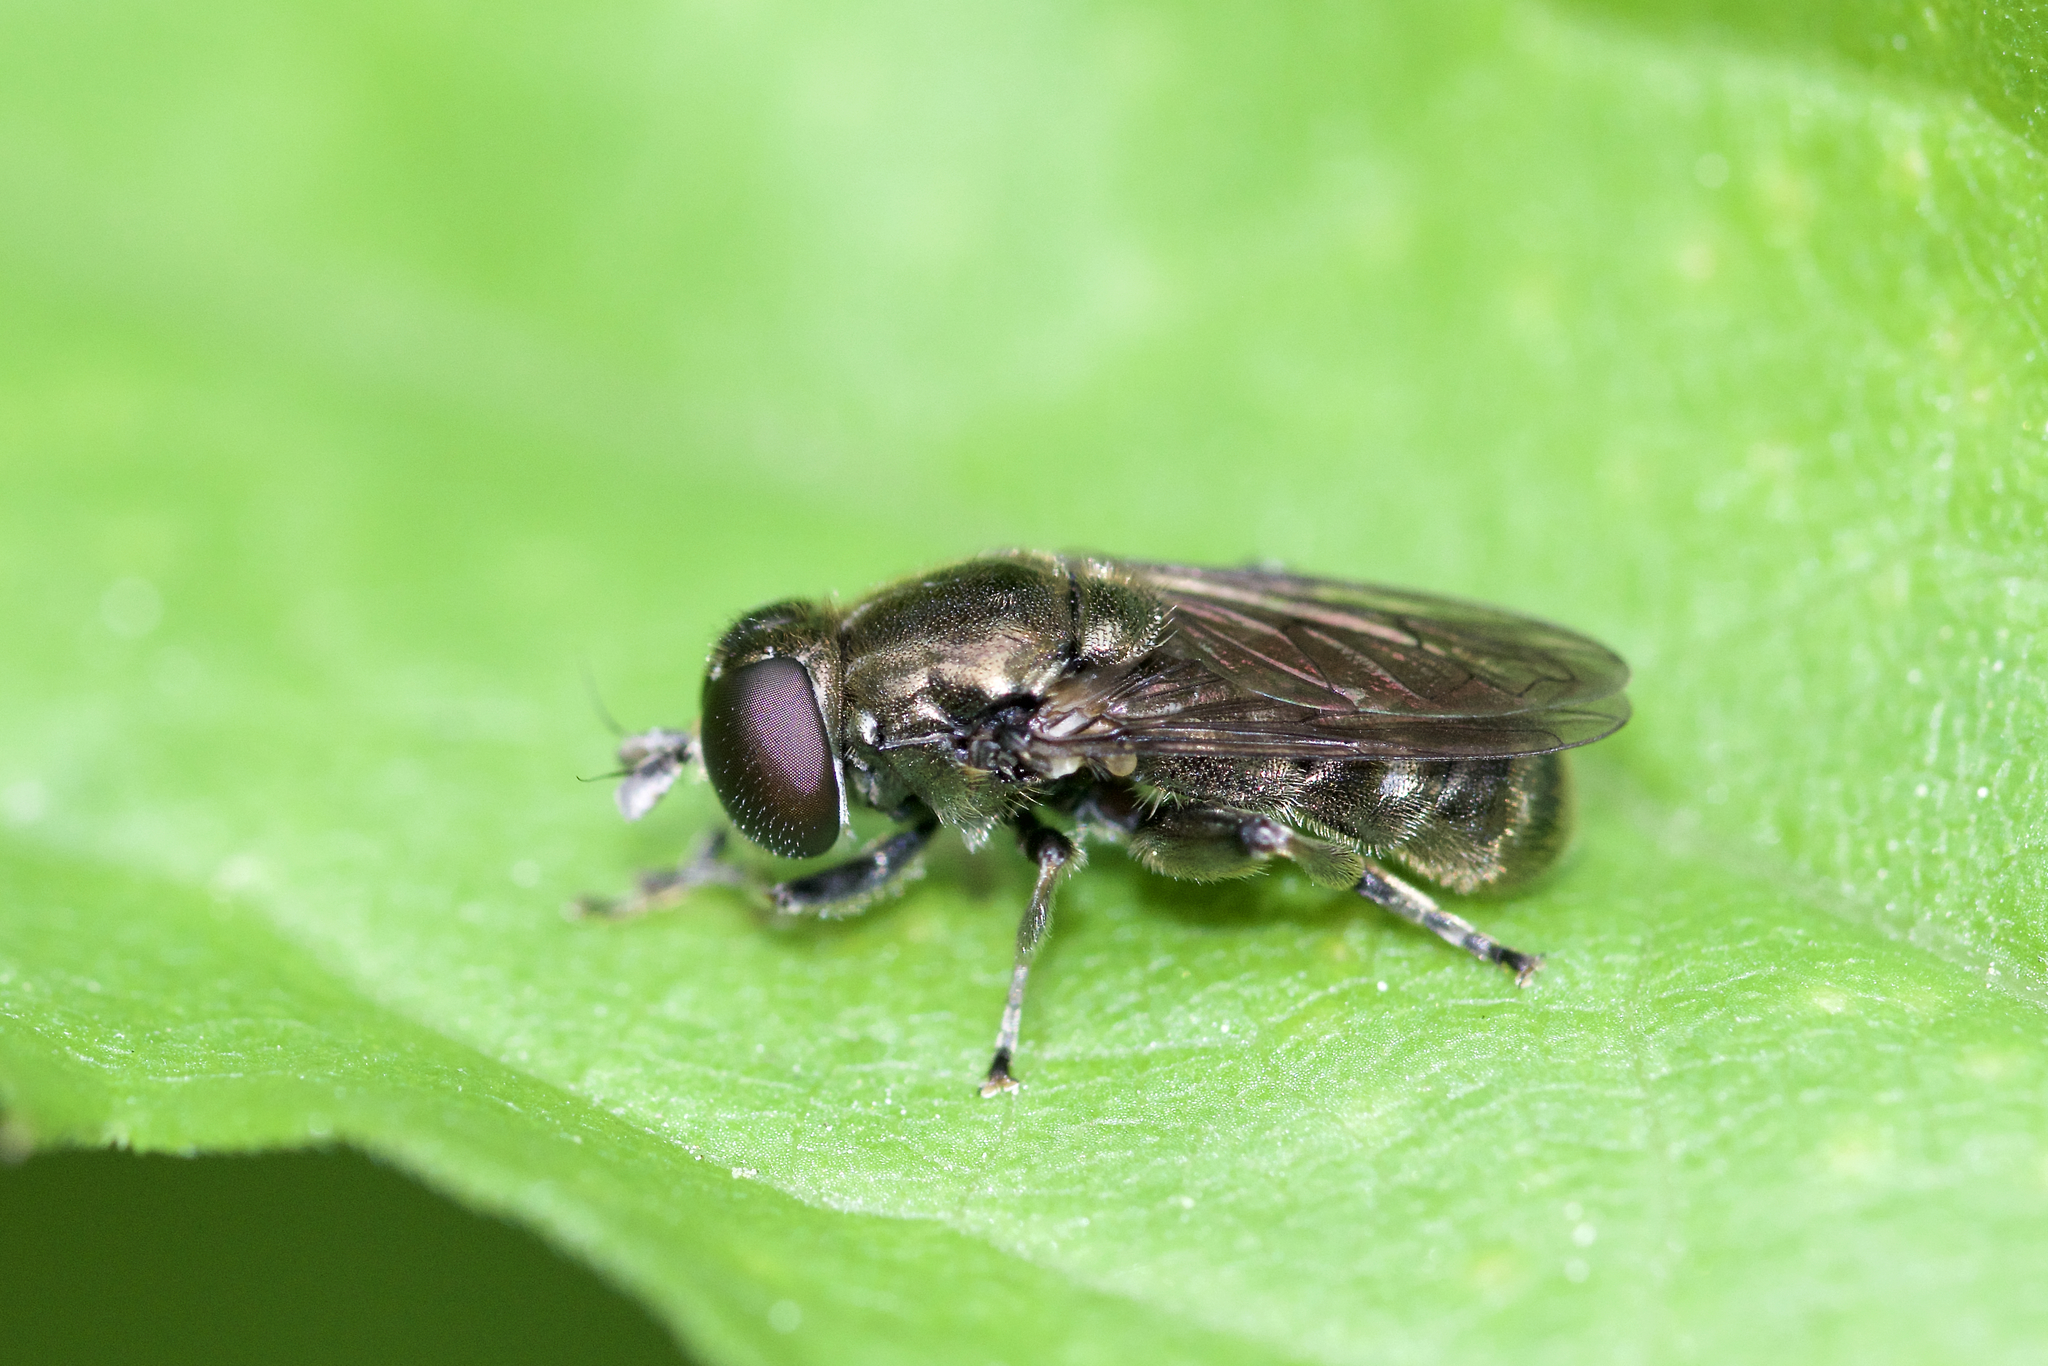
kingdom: Animalia
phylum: Arthropoda
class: Insecta
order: Diptera
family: Syrphidae
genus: Eumerus
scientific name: Eumerus
